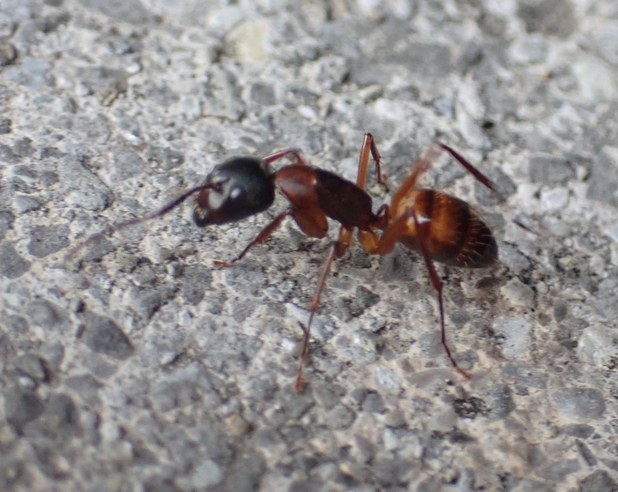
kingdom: Animalia
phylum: Arthropoda
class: Insecta
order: Hymenoptera
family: Formicidae
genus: Camponotus
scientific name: Camponotus americanus
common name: American carpenter ant
